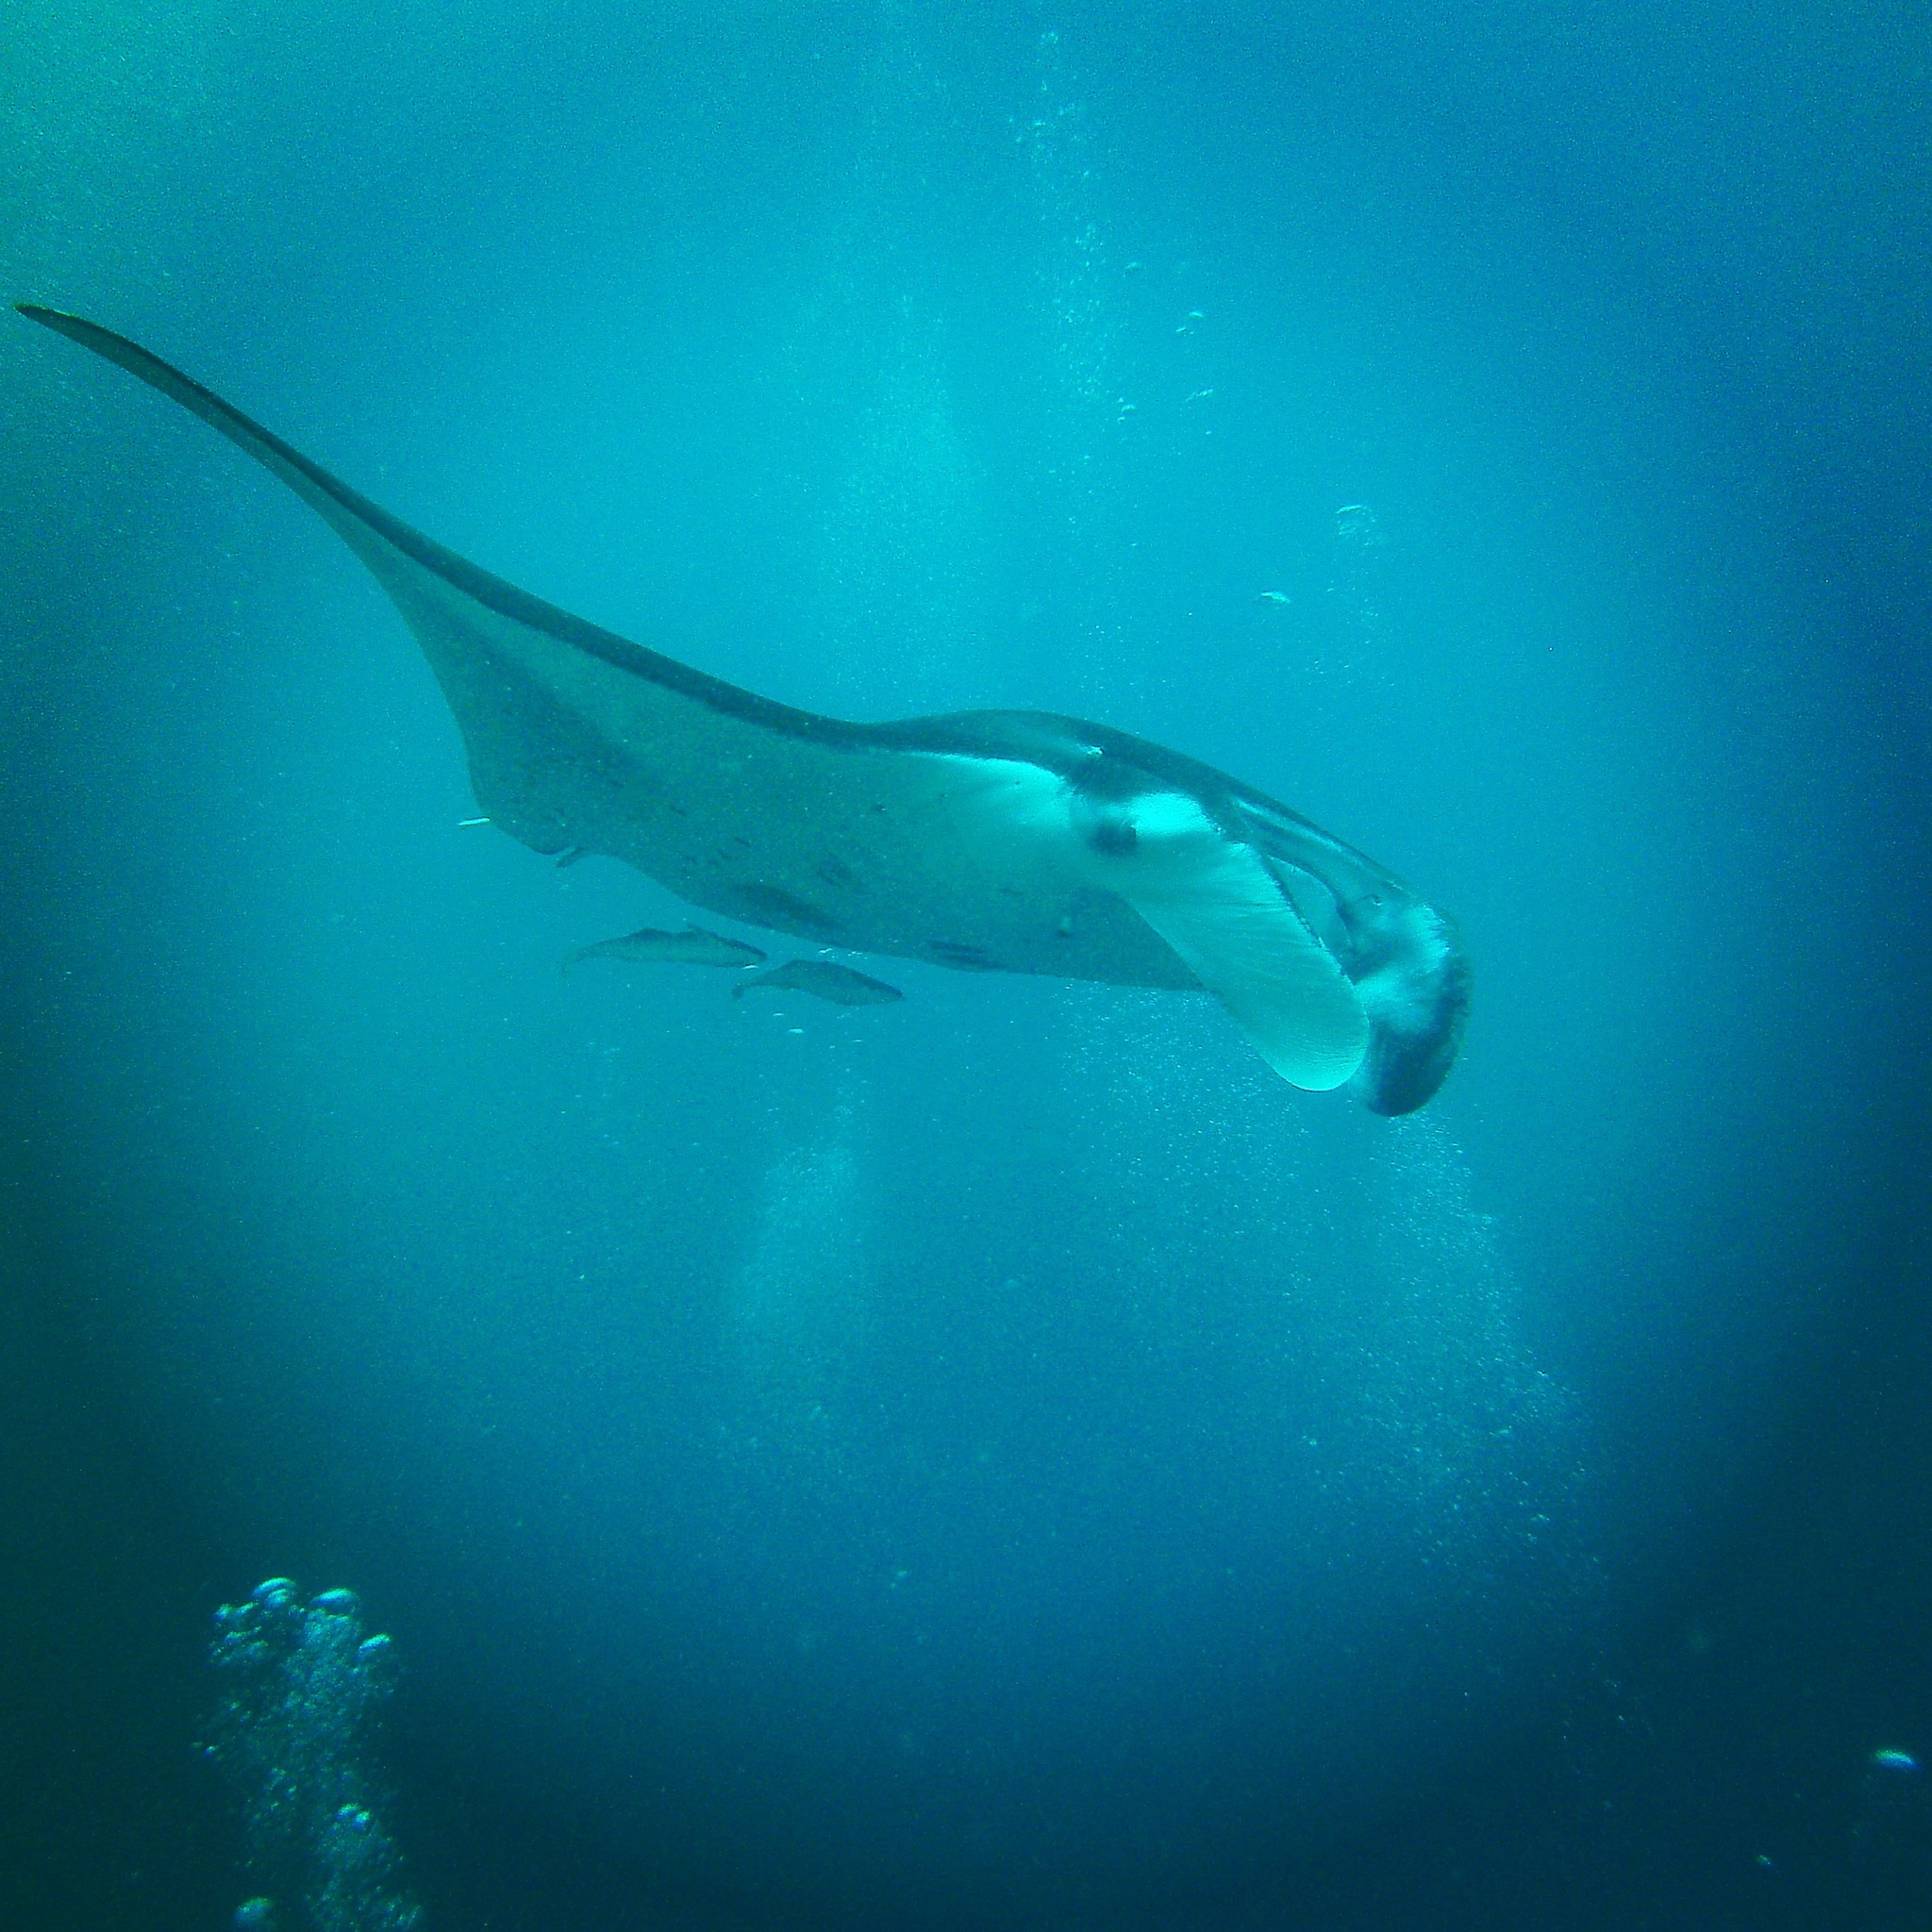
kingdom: Animalia
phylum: Chordata
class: Elasmobranchii
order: Myliobatiformes
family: Myliobatidae
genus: Mobula
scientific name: Mobula alfredi
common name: Reef manta ray
